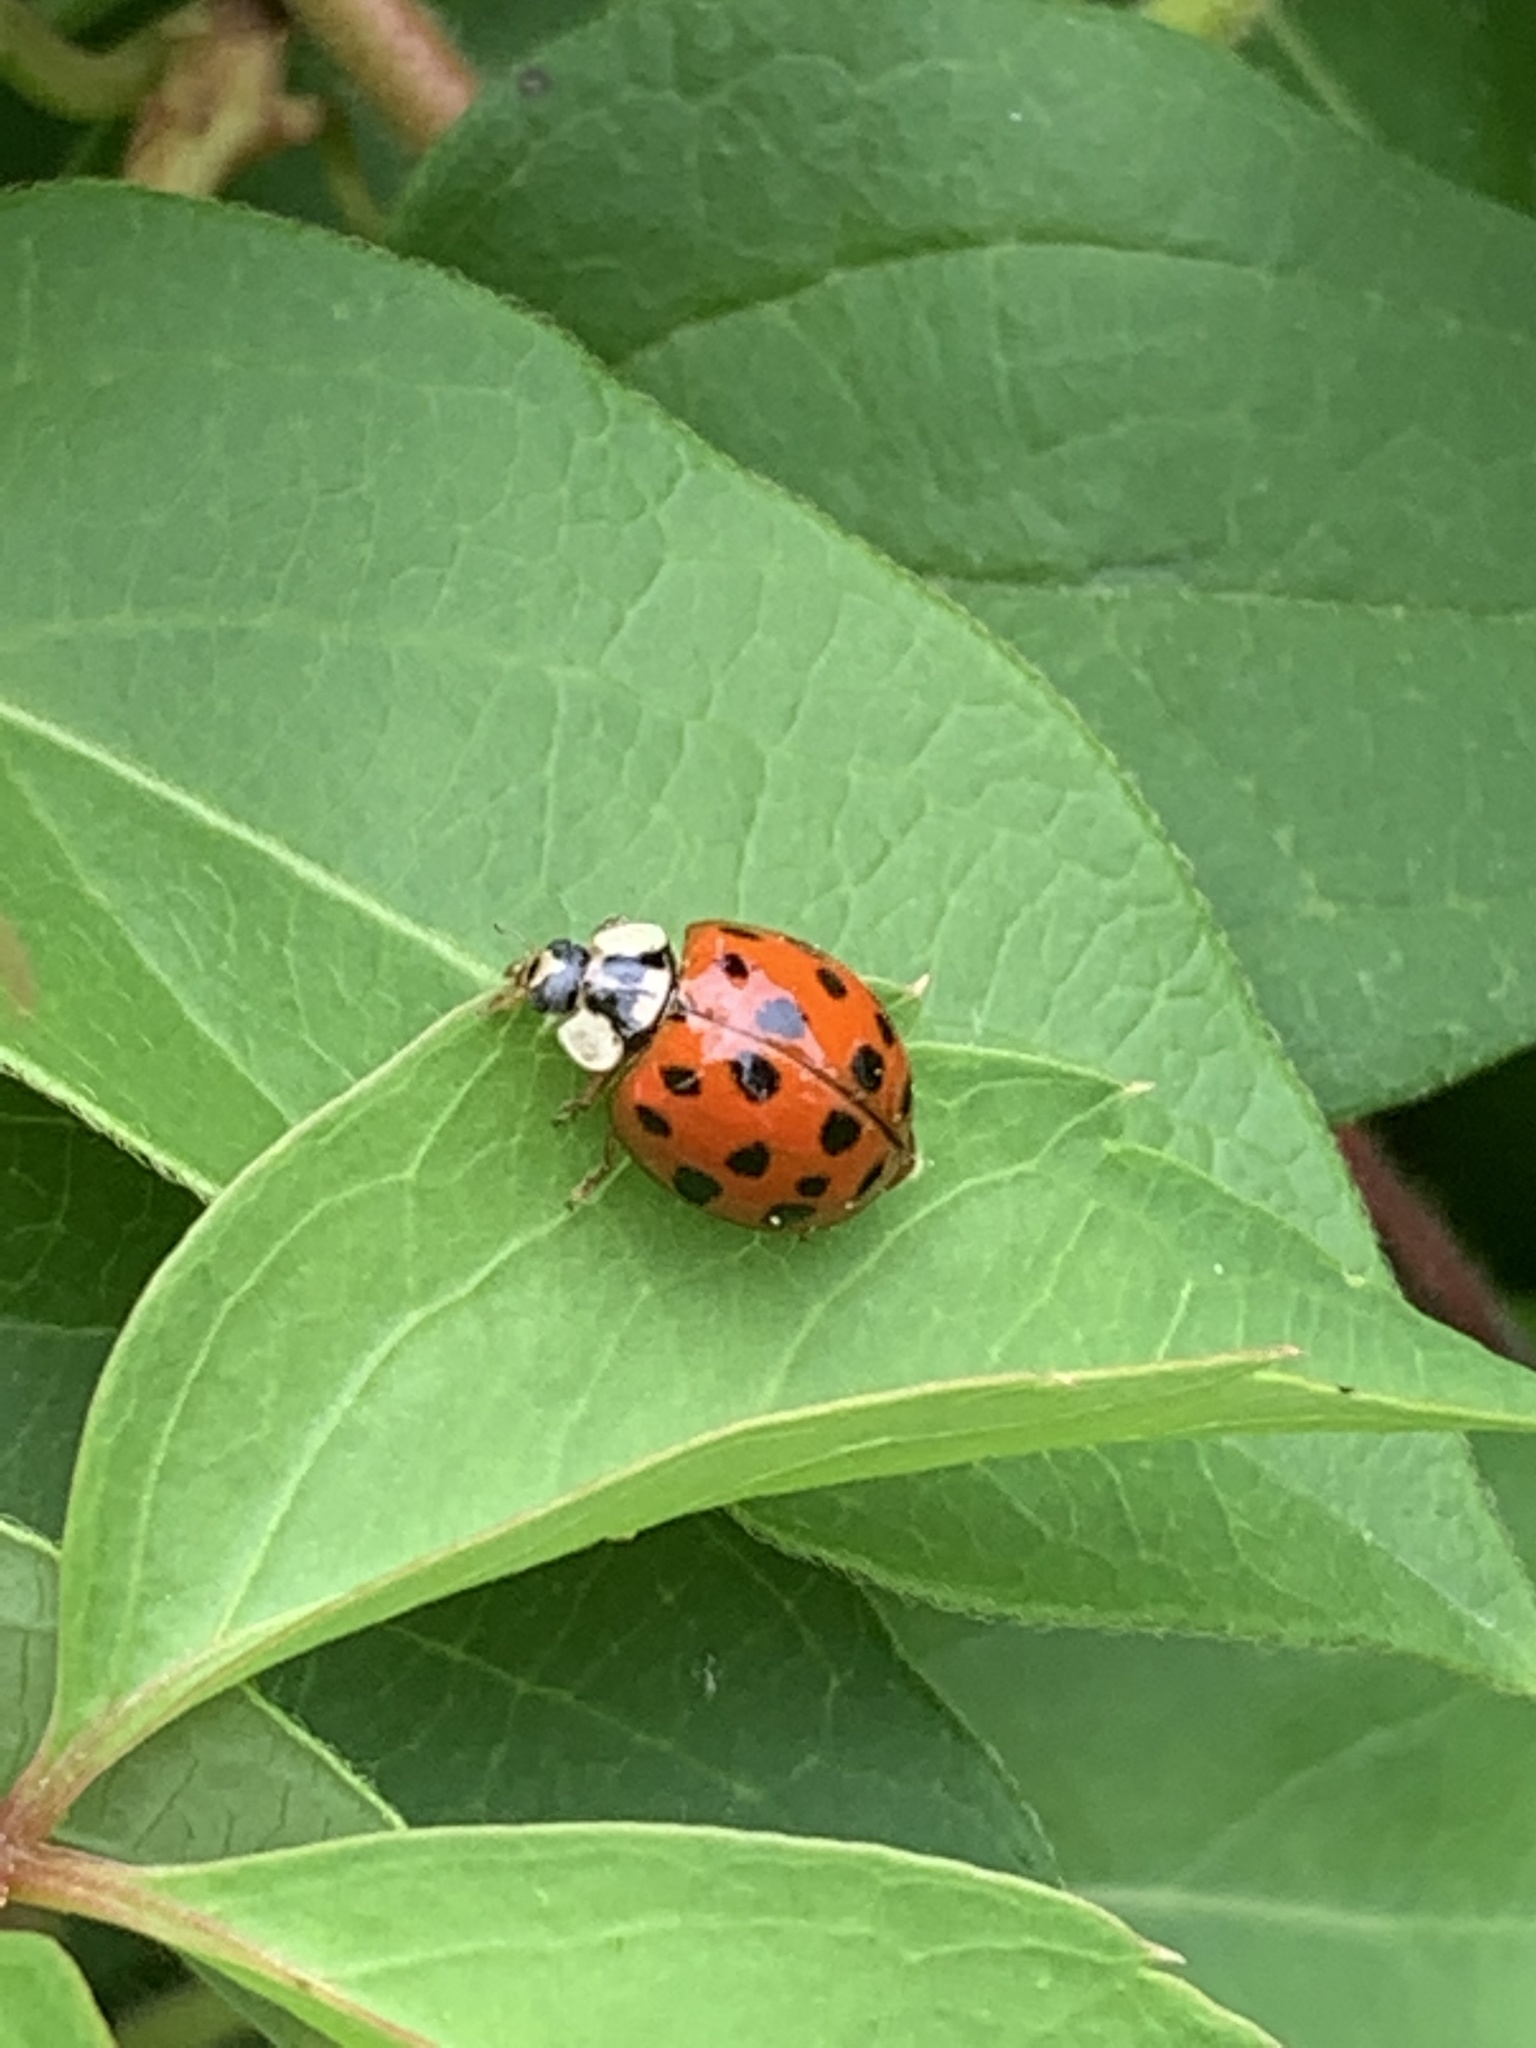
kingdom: Animalia
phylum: Arthropoda
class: Insecta
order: Coleoptera
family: Coccinellidae
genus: Harmonia
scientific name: Harmonia axyridis
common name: Harlequin ladybird
